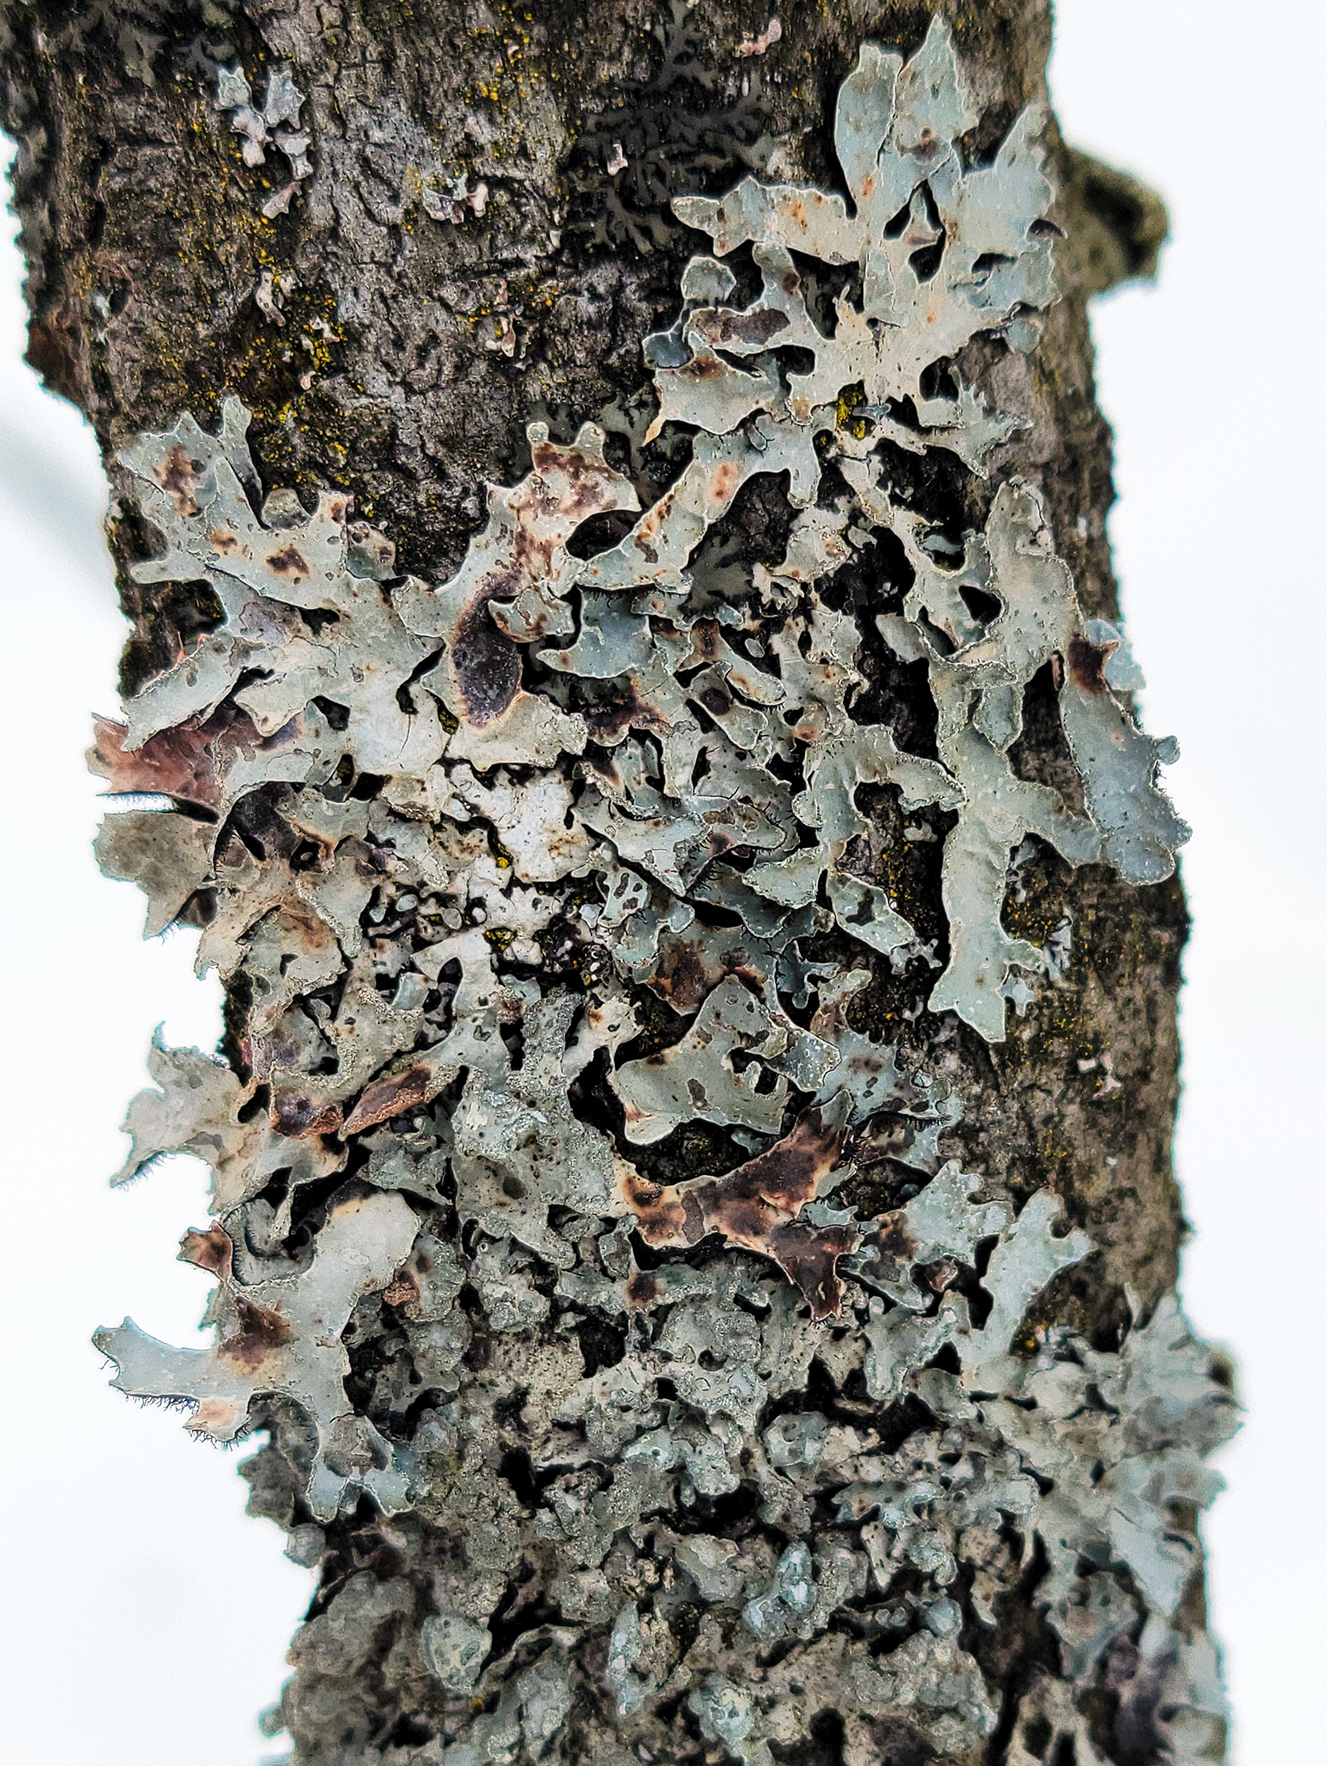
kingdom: Fungi
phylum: Ascomycota
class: Lecanoromycetes
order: Lecanorales
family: Parmeliaceae
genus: Parmelia
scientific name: Parmelia sulcata
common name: Netted shield lichen
